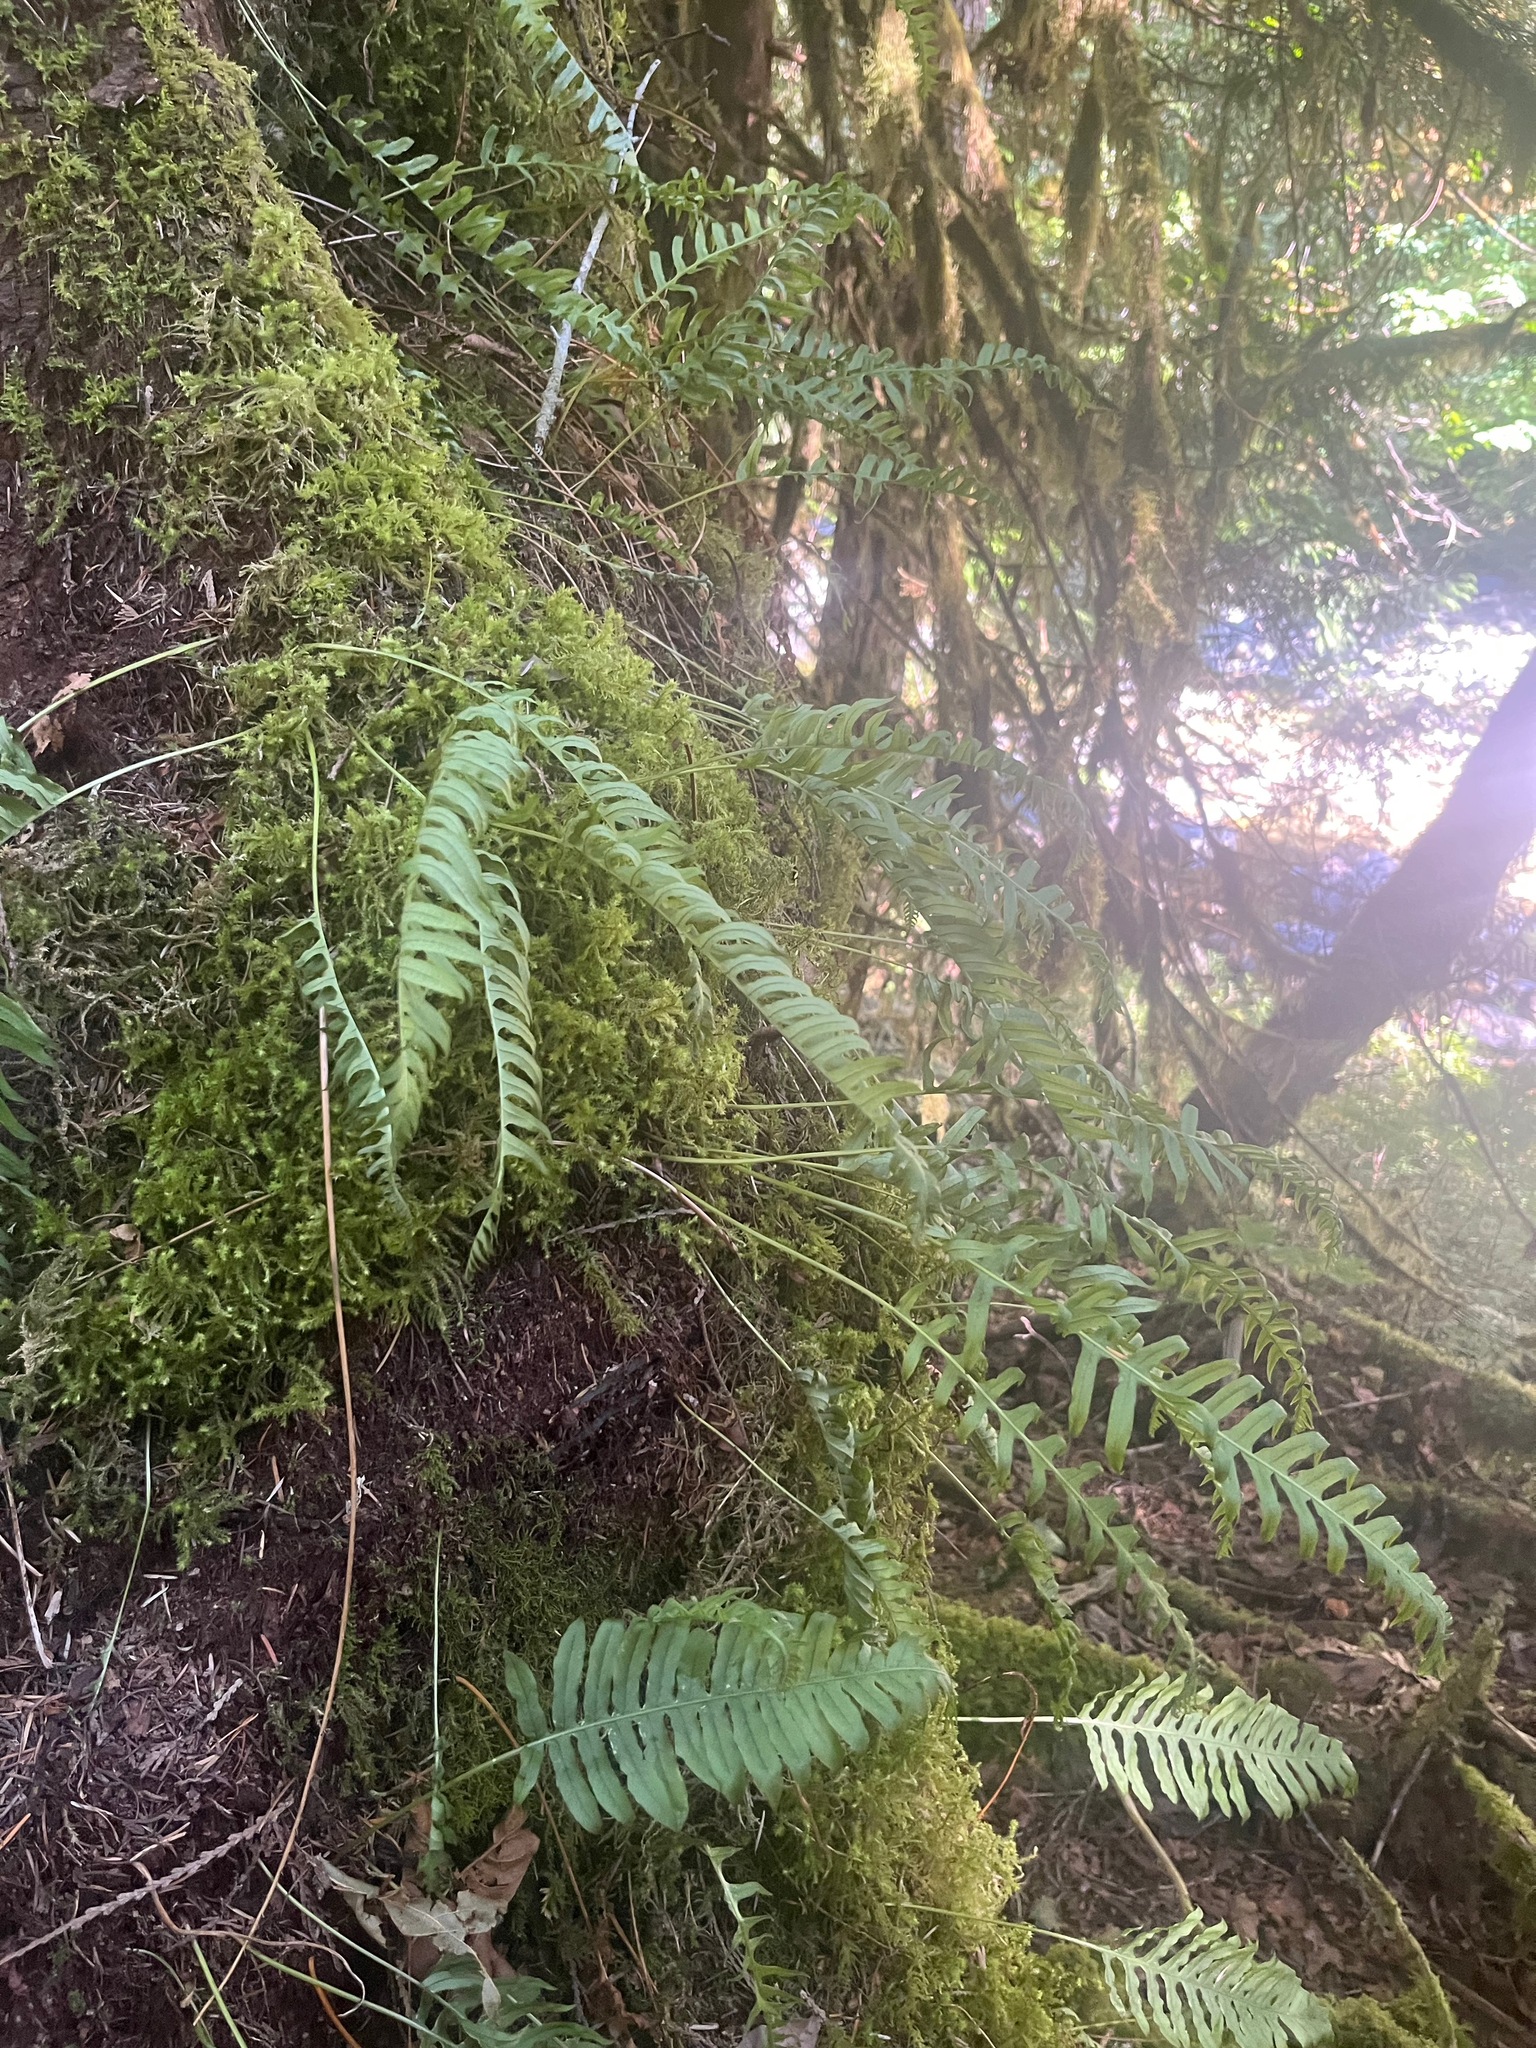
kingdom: Plantae
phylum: Tracheophyta
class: Polypodiopsida
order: Polypodiales
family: Polypodiaceae
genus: Polypodium
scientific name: Polypodium glycyrrhiza
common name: Licorice fern
